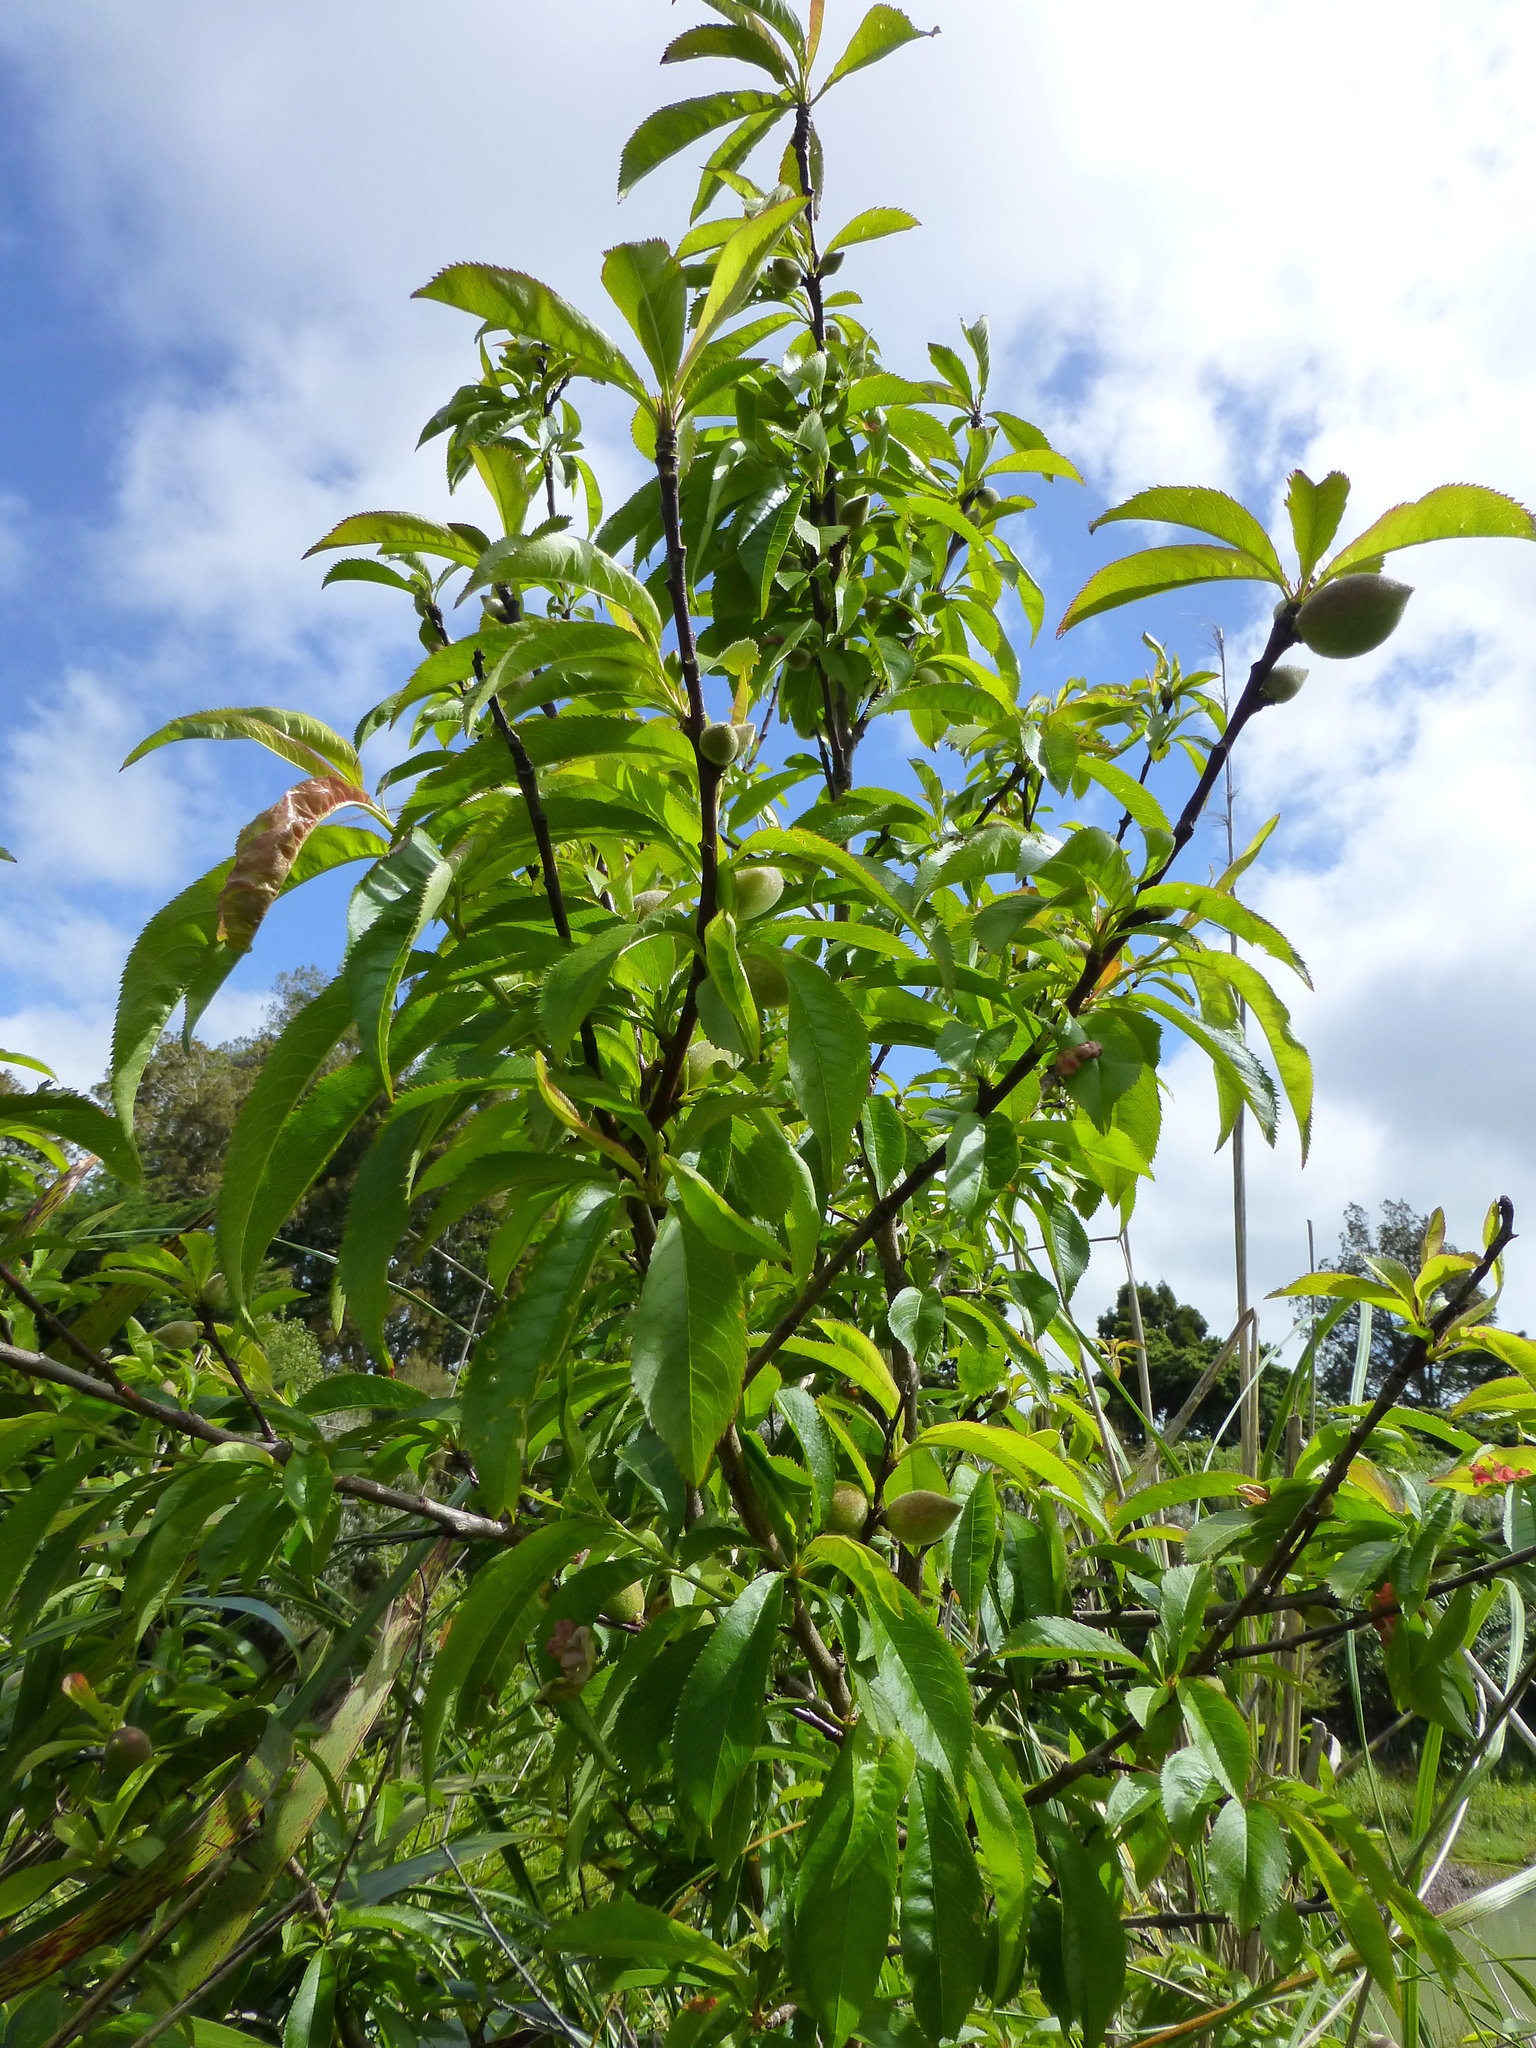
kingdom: Plantae
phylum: Tracheophyta
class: Magnoliopsida
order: Rosales
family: Rosaceae
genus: Prunus
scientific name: Prunus persica
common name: Peach
